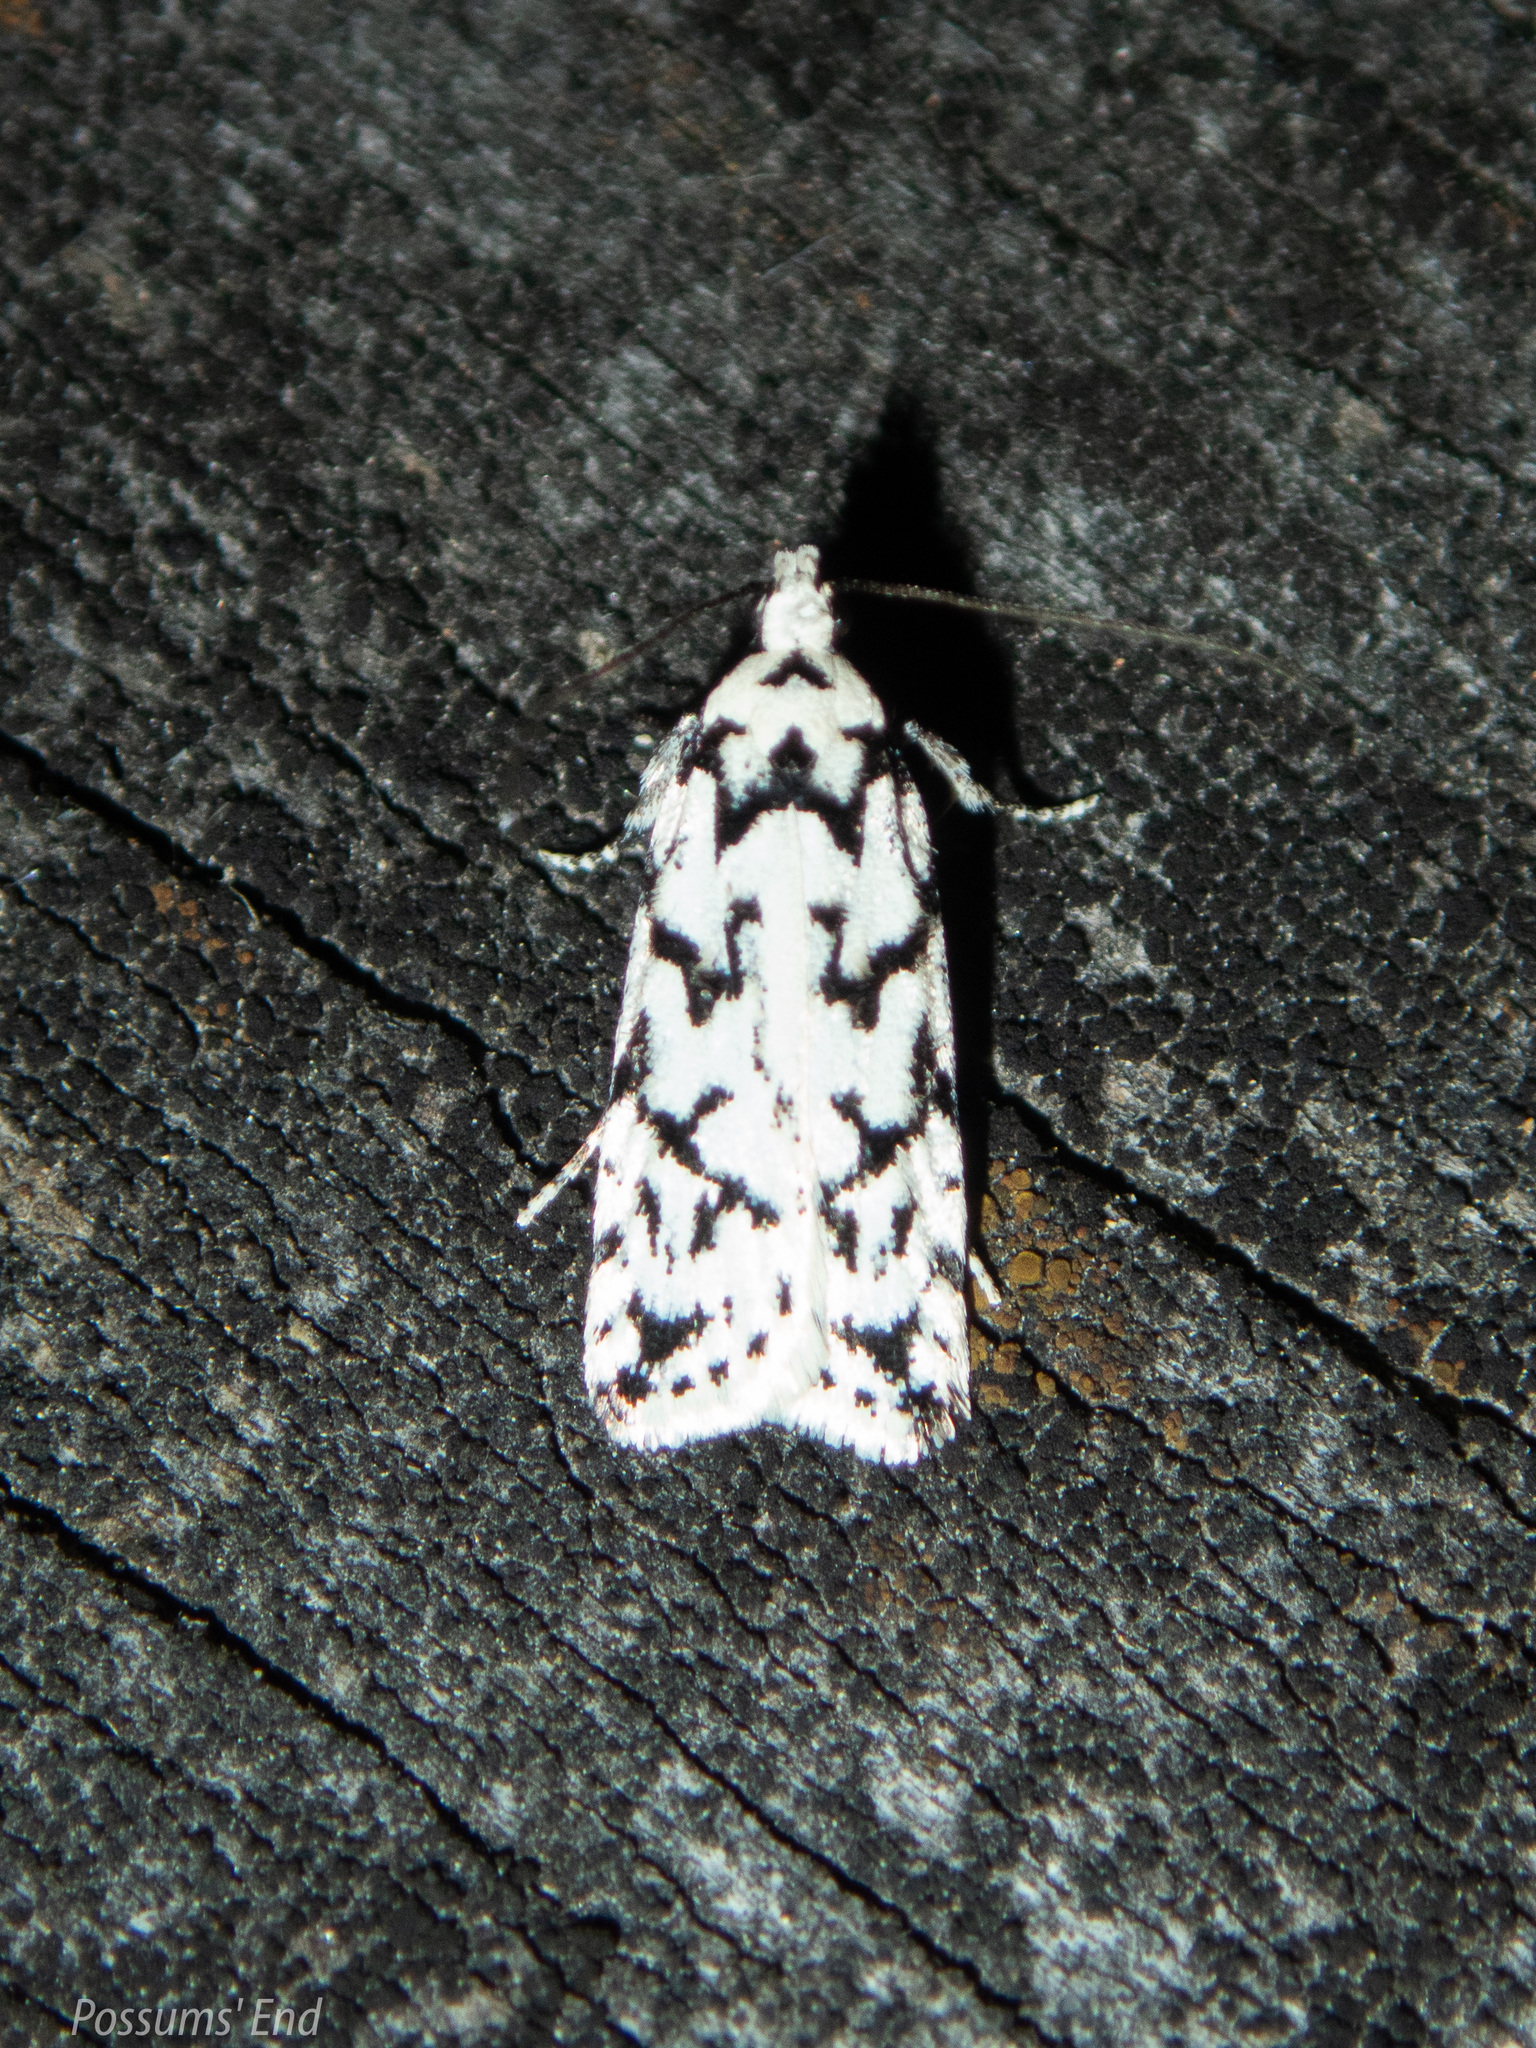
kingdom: Animalia
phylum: Arthropoda
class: Insecta
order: Lepidoptera
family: Oecophoridae
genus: Izatha
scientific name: Izatha katadiktya
